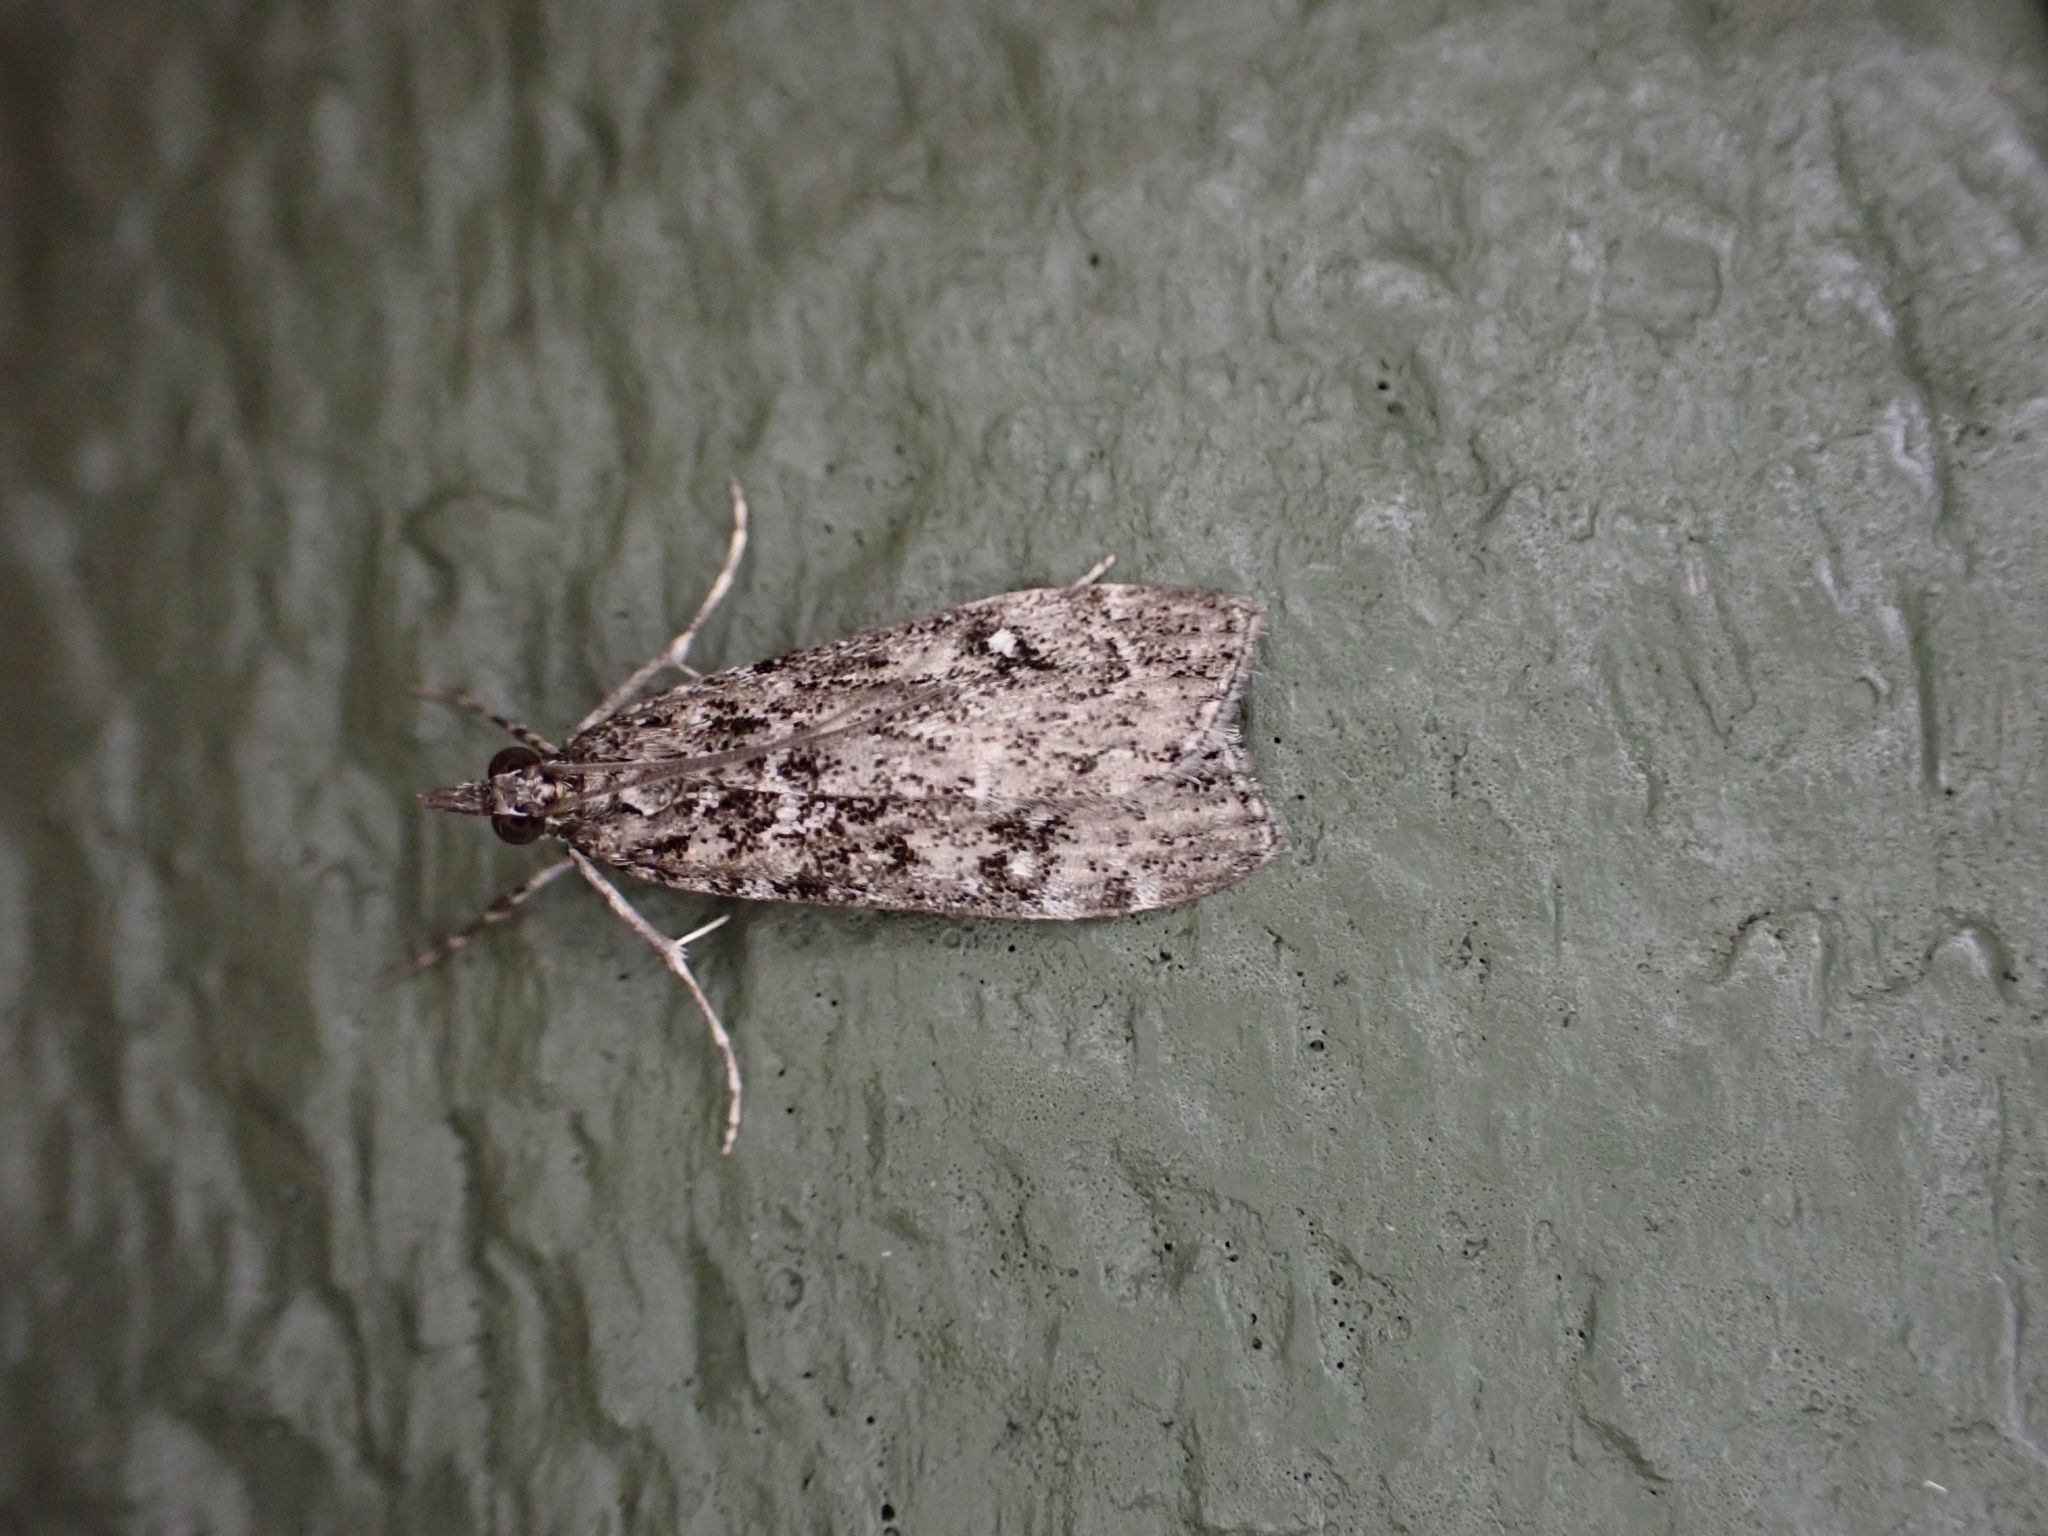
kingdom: Animalia
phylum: Arthropoda
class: Insecta
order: Lepidoptera
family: Crambidae
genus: Eudonia
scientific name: Eudonia philerga
